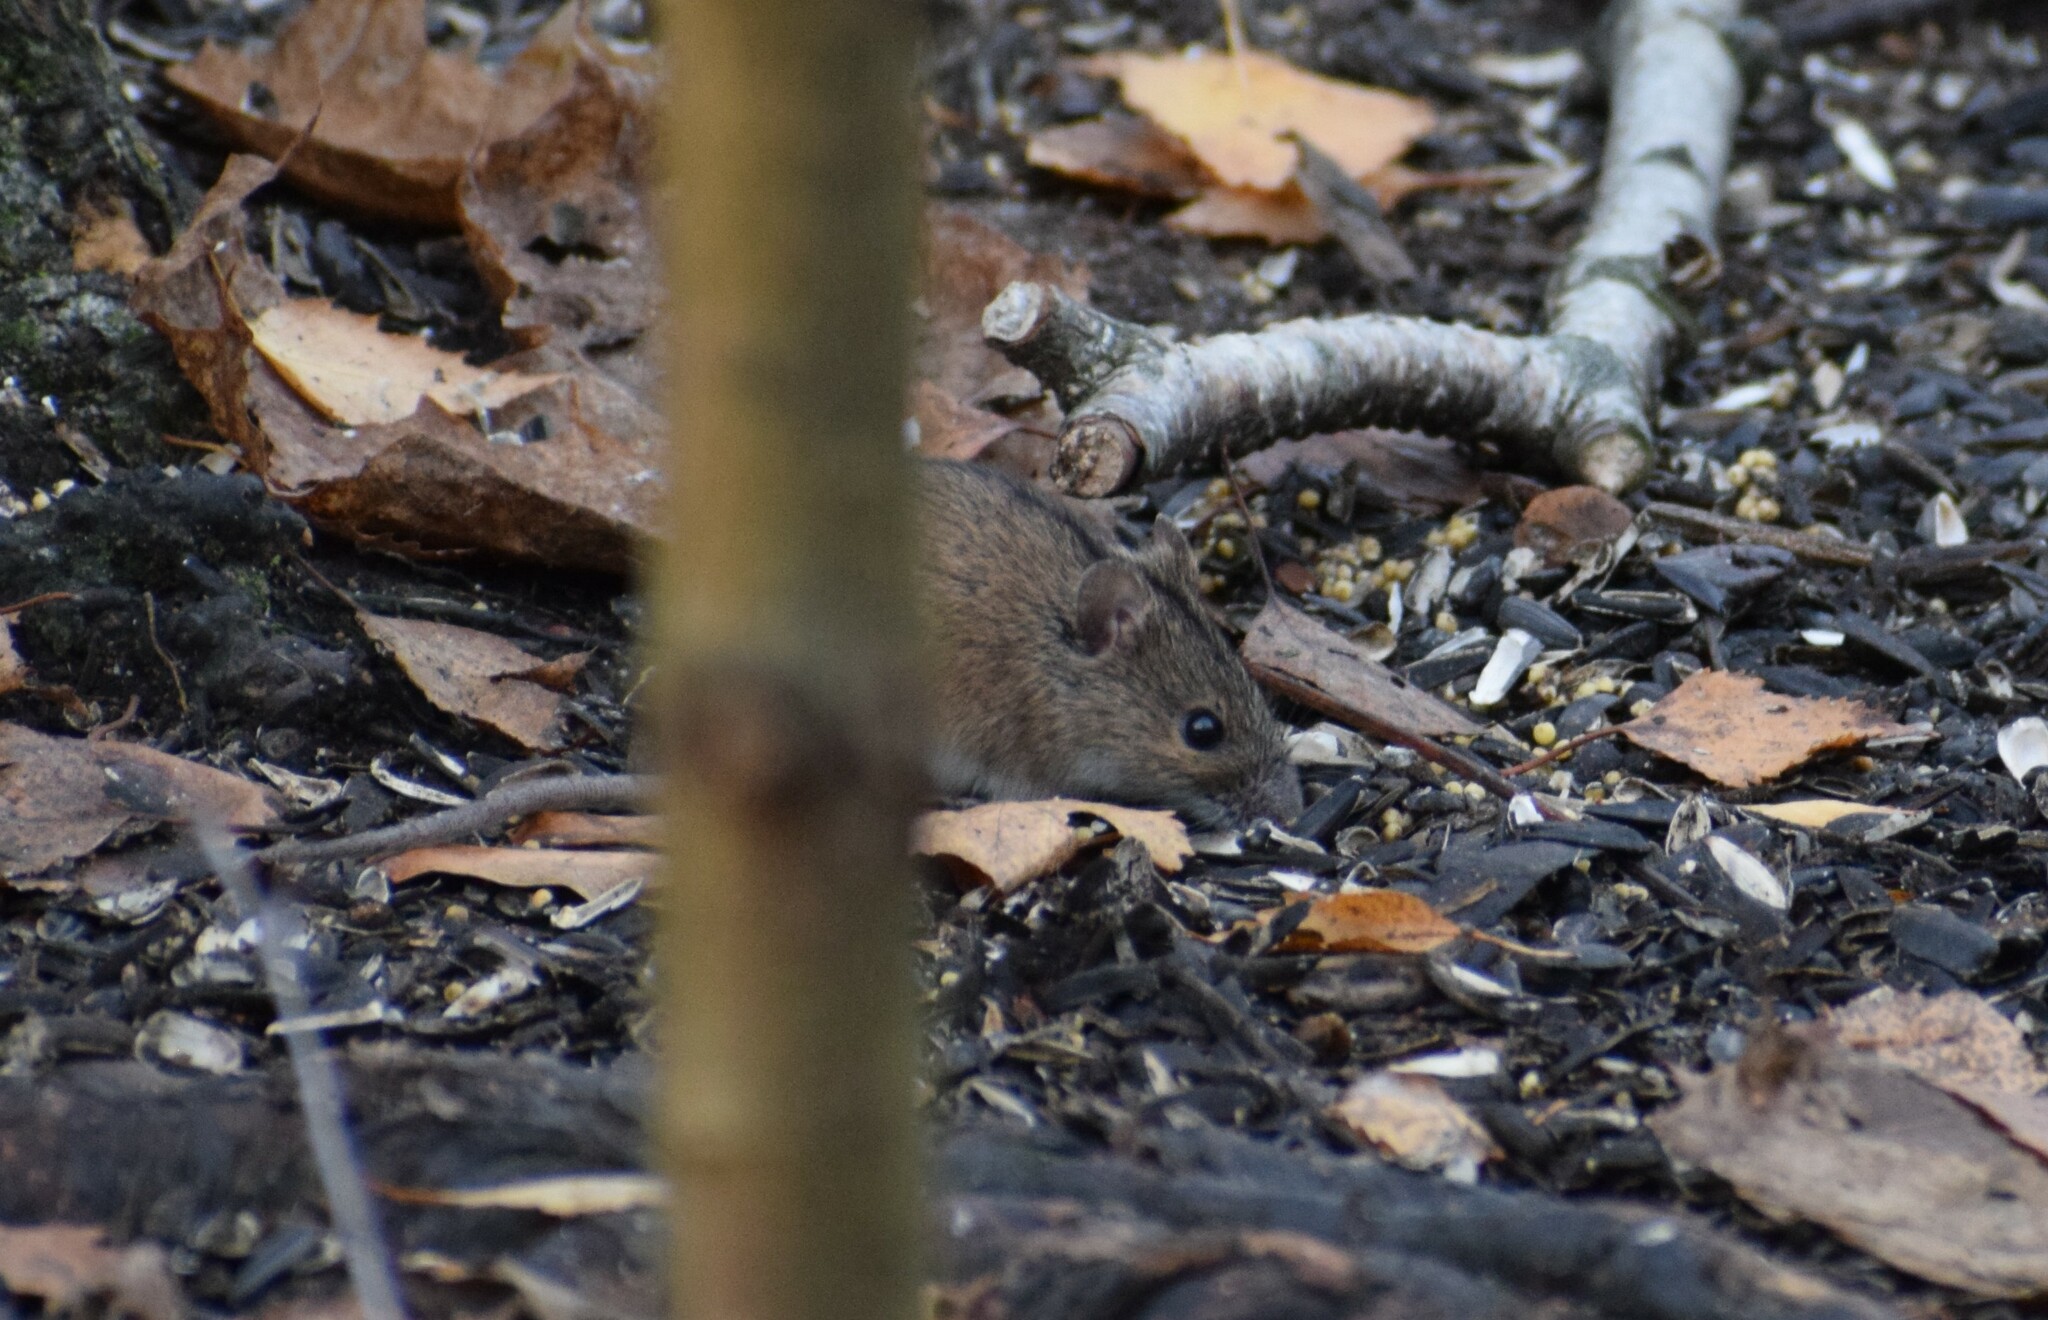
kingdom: Animalia
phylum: Chordata
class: Mammalia
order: Rodentia
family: Muridae
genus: Apodemus
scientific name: Apodemus agrarius
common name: Striped field mouse
